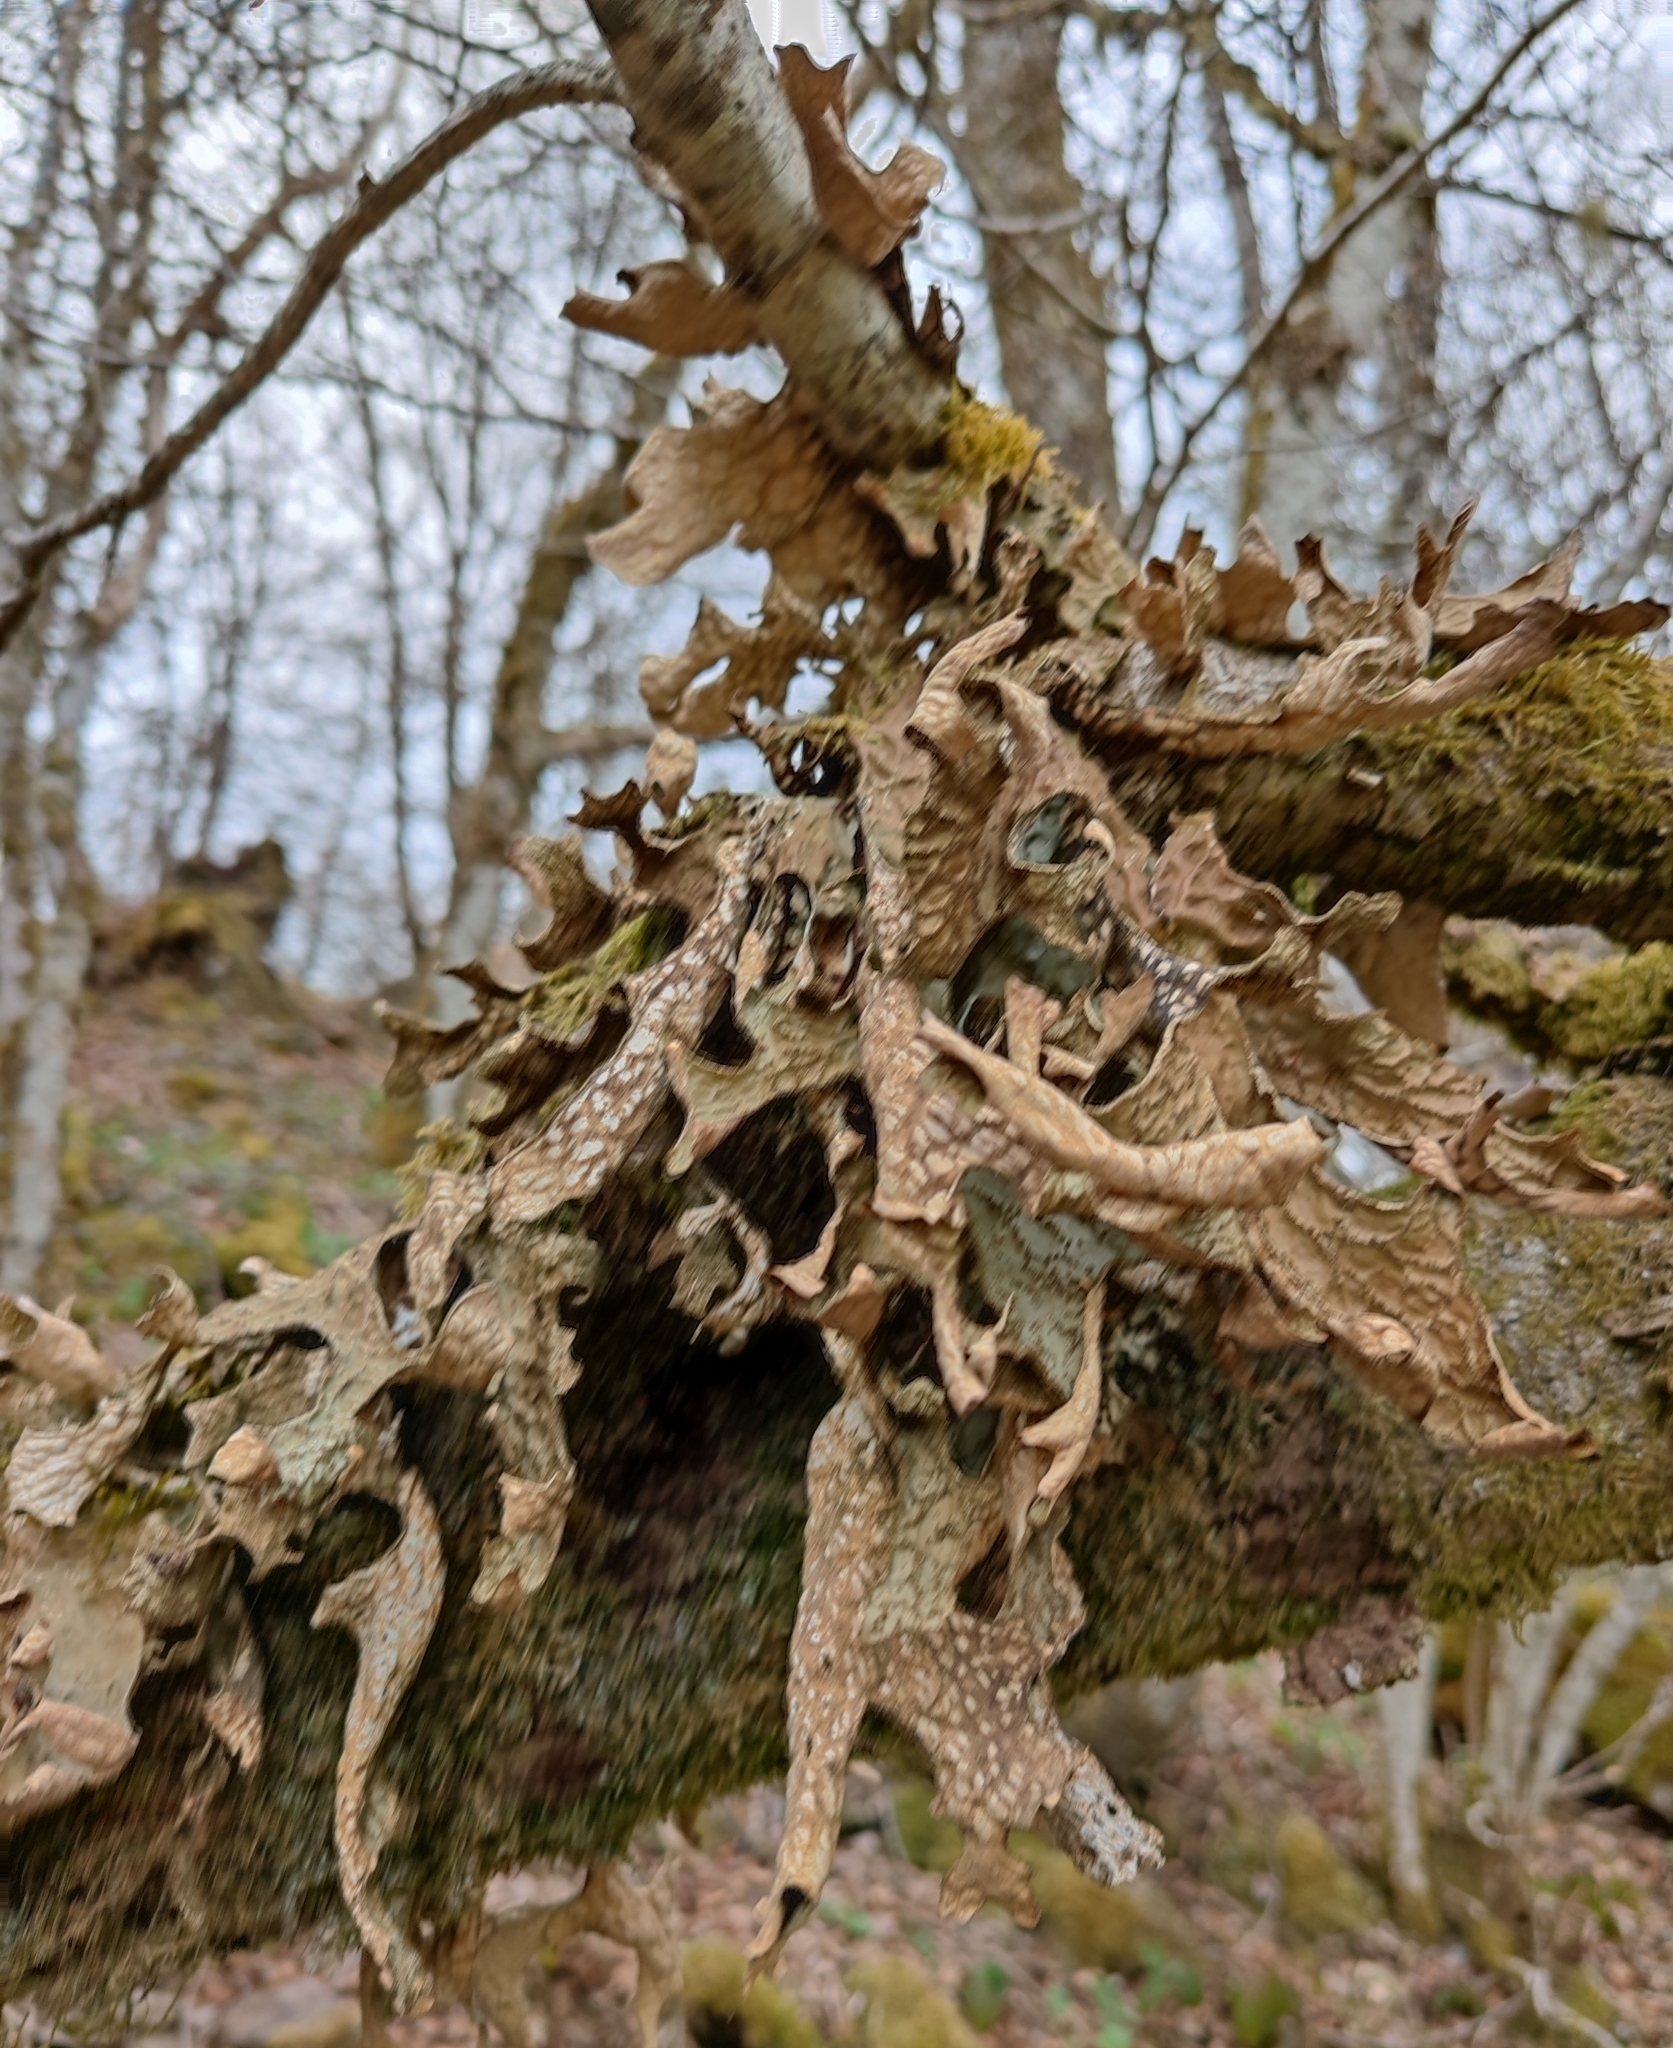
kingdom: Fungi
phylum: Ascomycota
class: Lecanoromycetes
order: Peltigerales
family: Lobariaceae
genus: Lobaria
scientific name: Lobaria pulmonaria
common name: Lungwort
